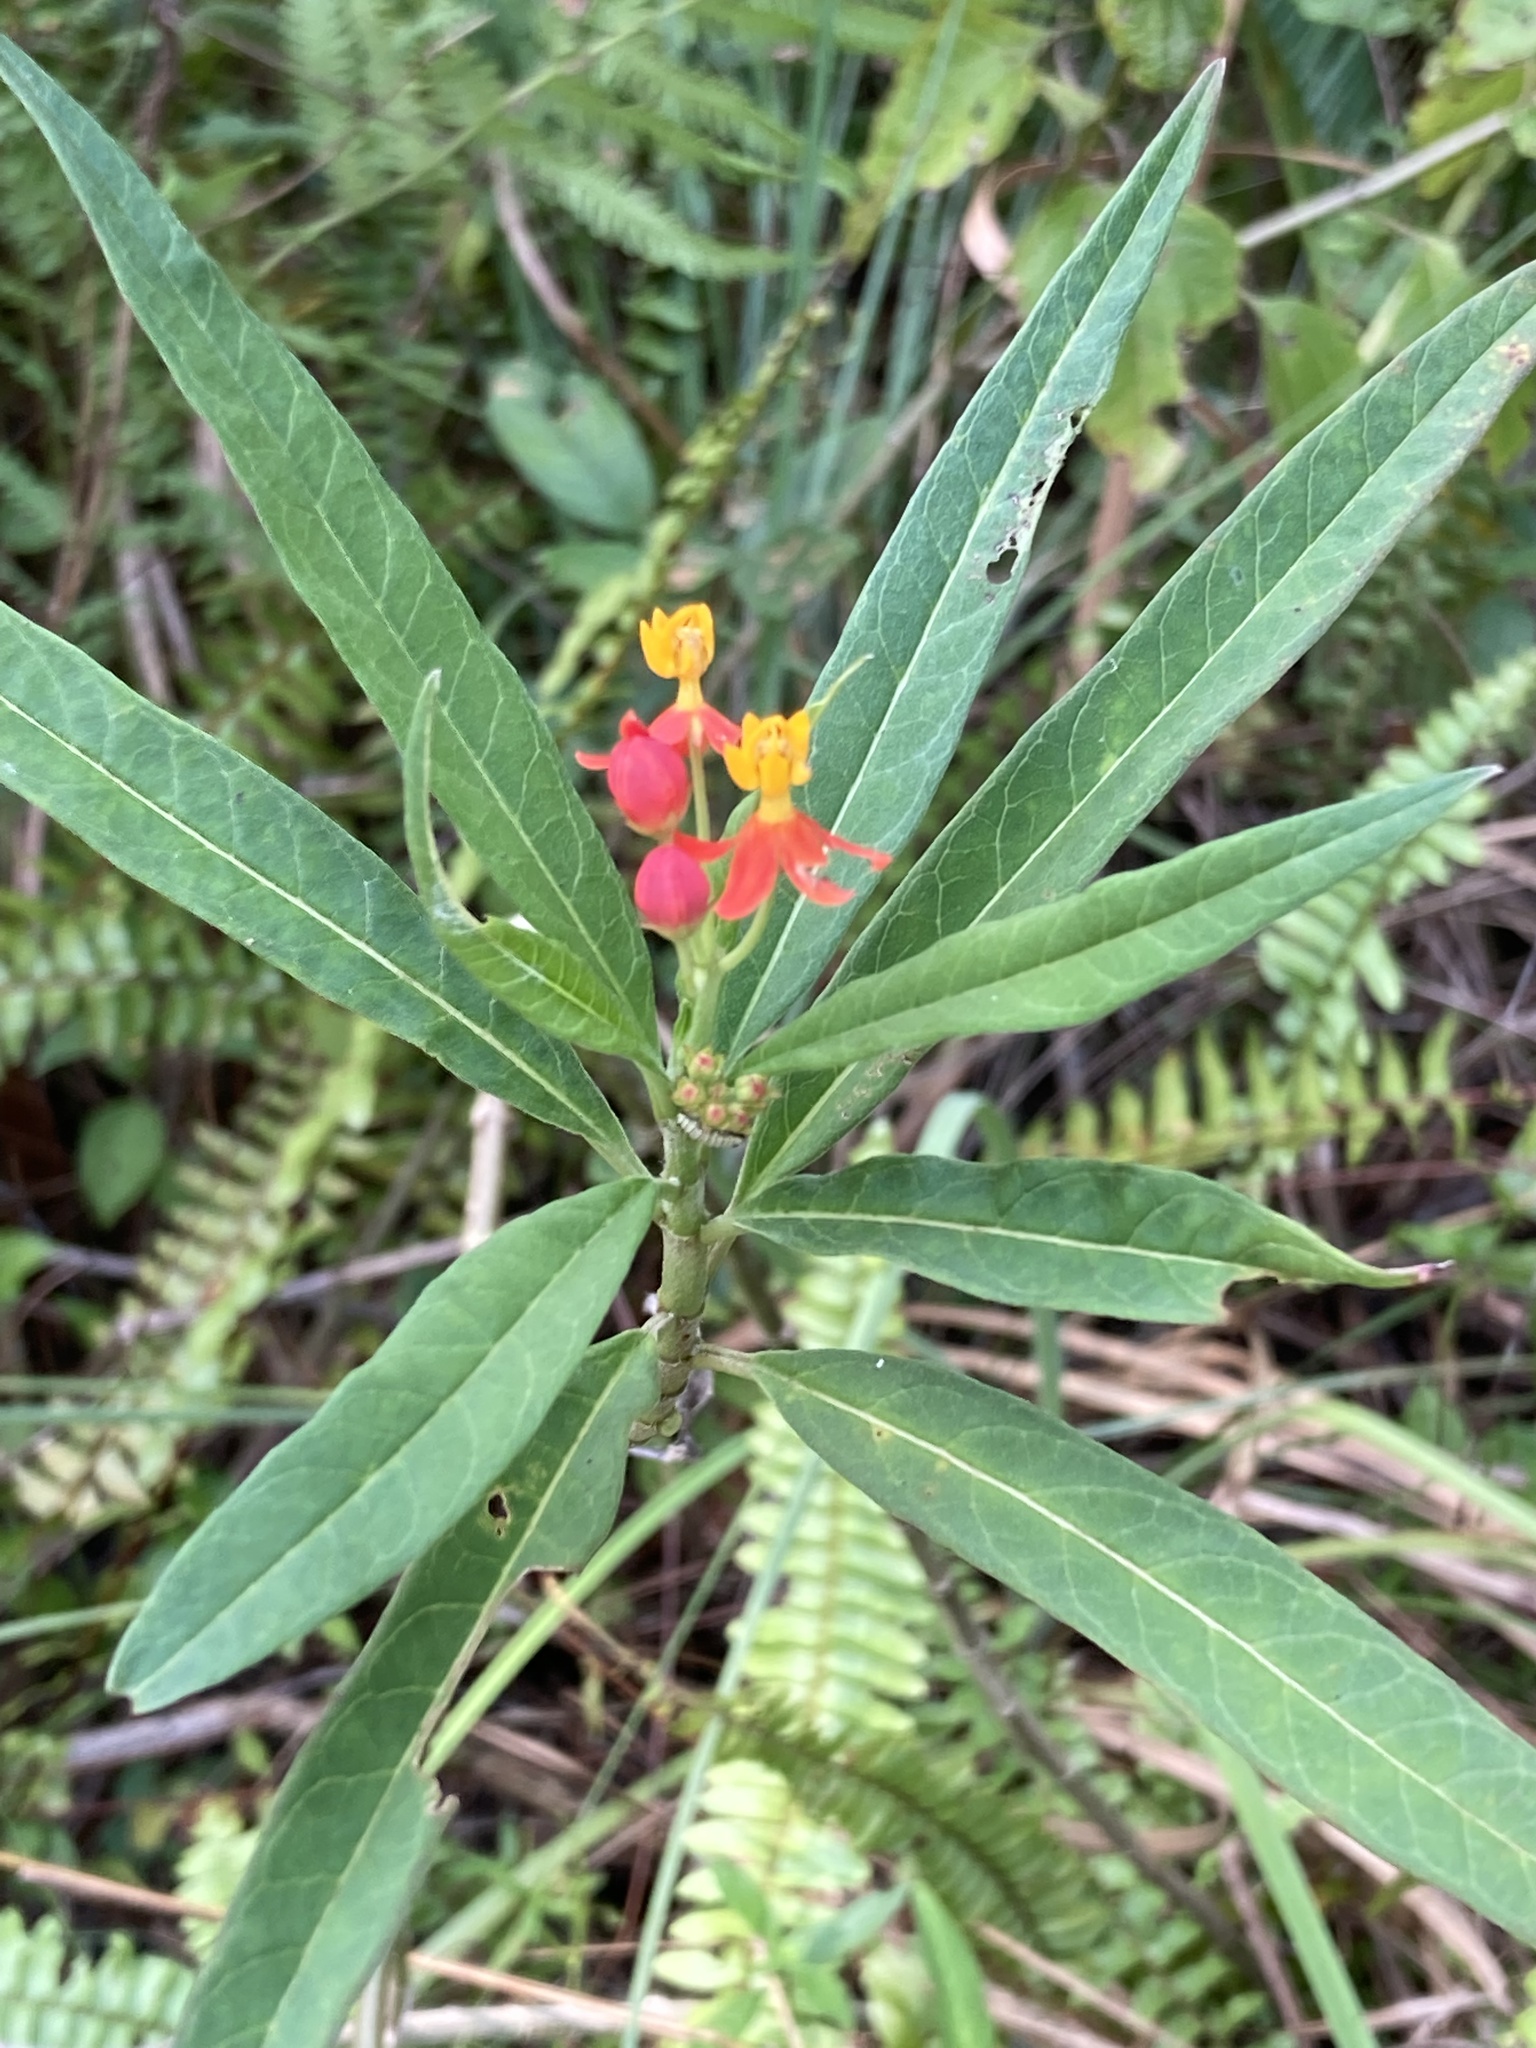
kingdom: Plantae
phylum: Tracheophyta
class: Magnoliopsida
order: Gentianales
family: Apocynaceae
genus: Asclepias
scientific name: Asclepias curassavica
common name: Bloodflower
